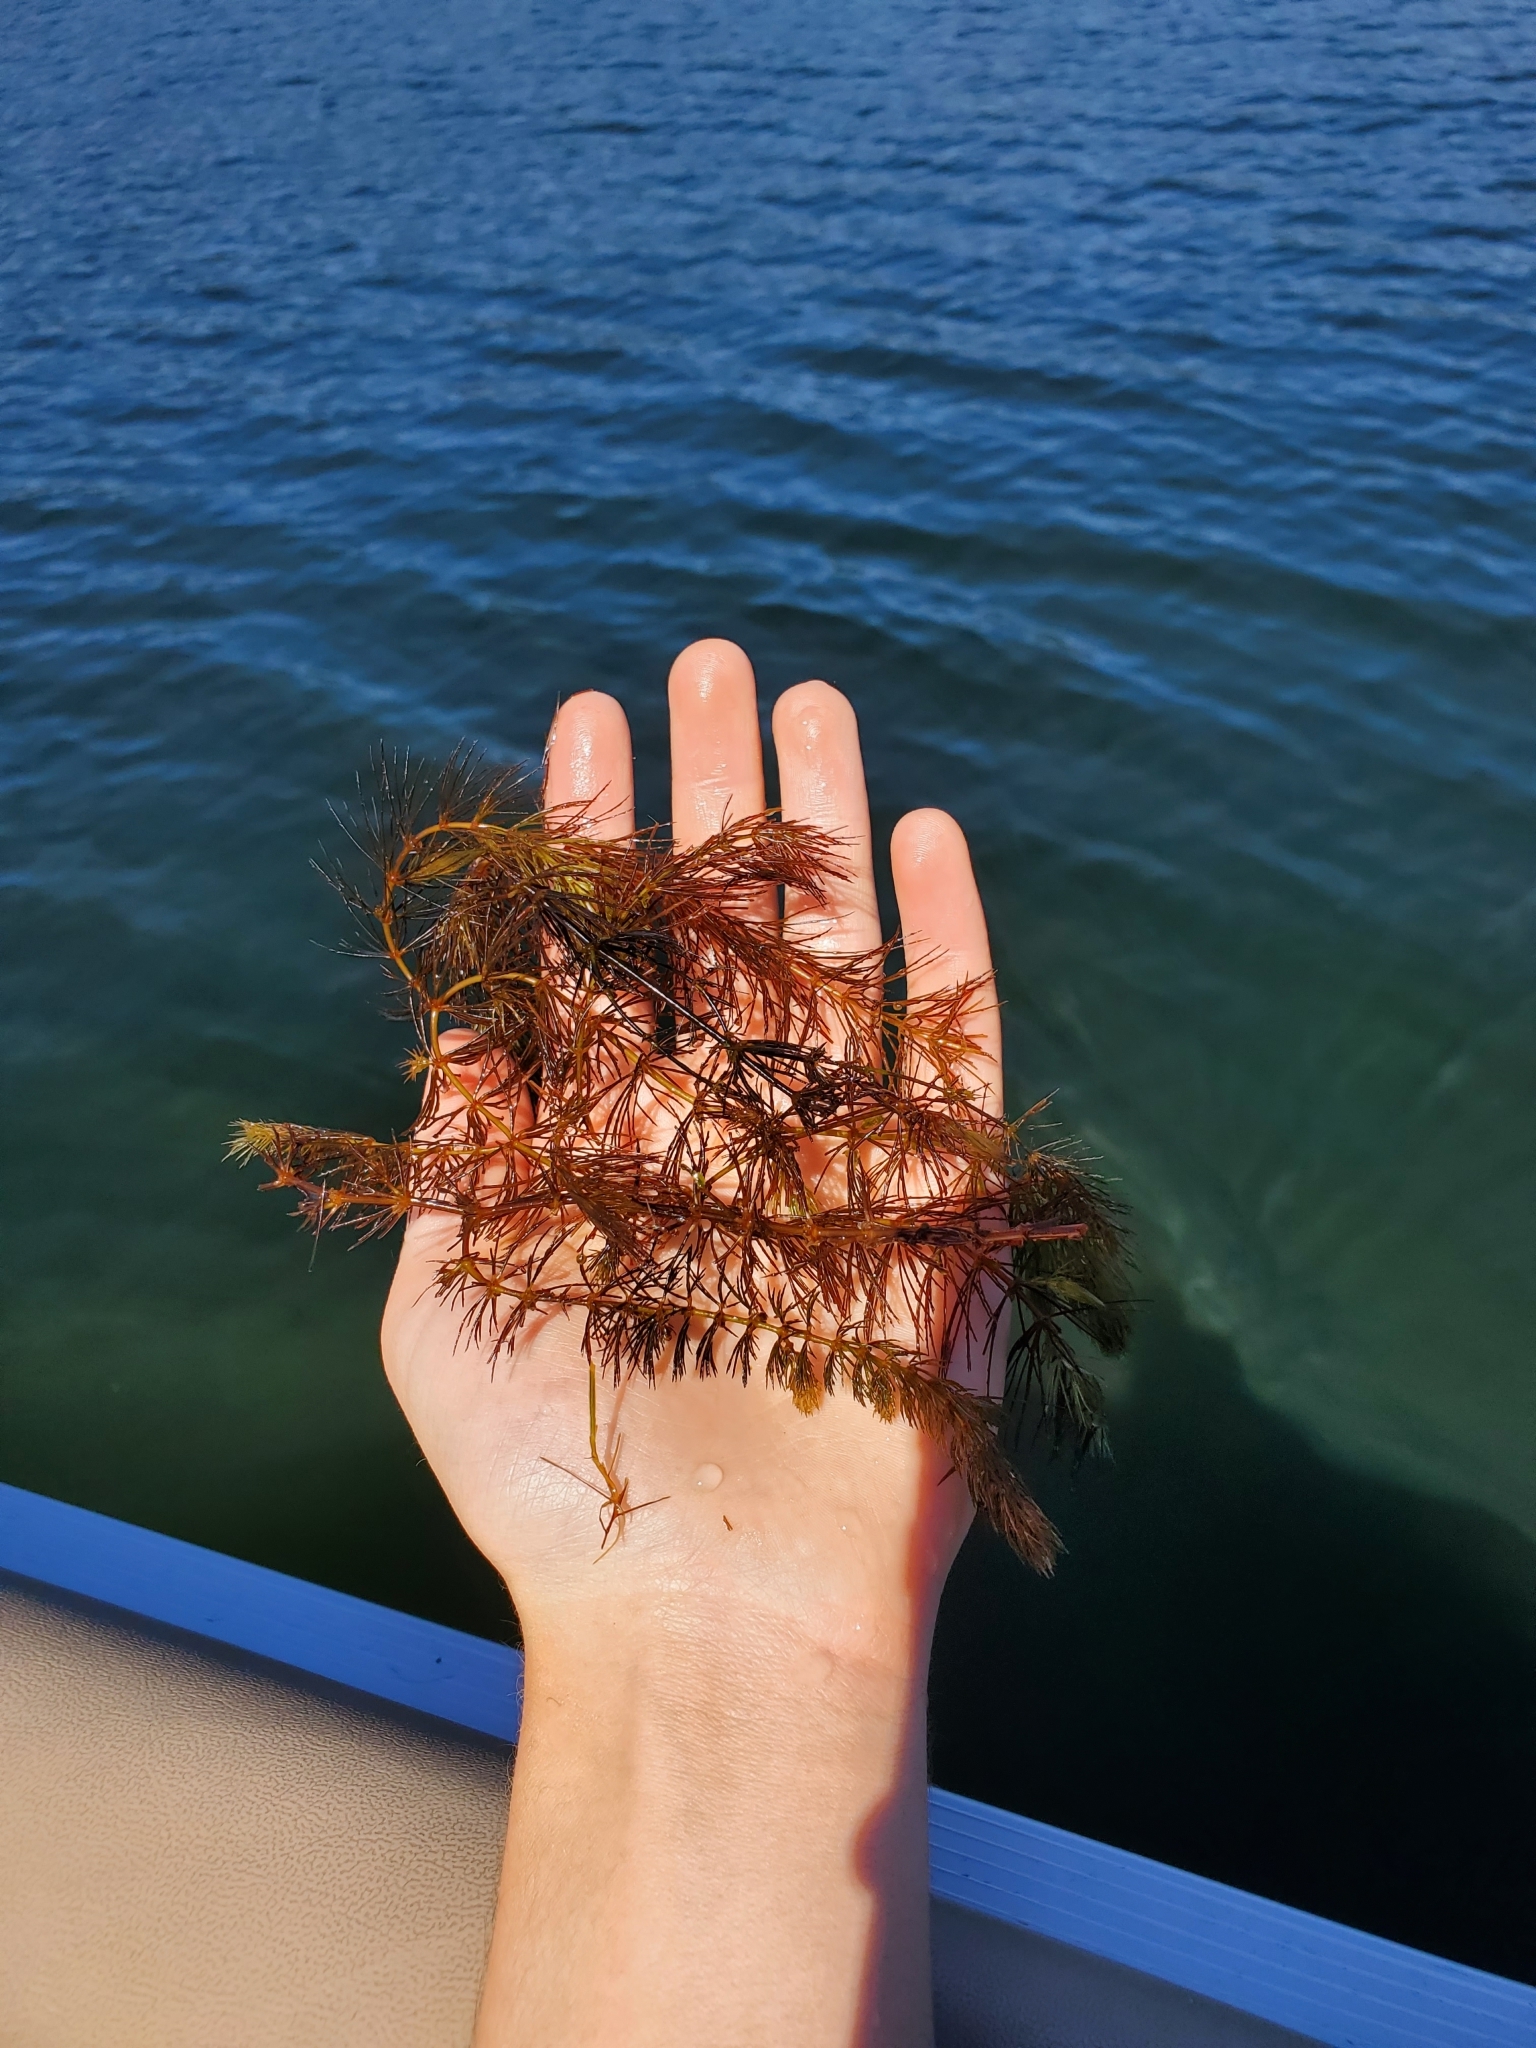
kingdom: Plantae
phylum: Tracheophyta
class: Magnoliopsida
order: Ceratophyllales
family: Ceratophyllaceae
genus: Ceratophyllum
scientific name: Ceratophyllum demersum
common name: Rigid hornwort
